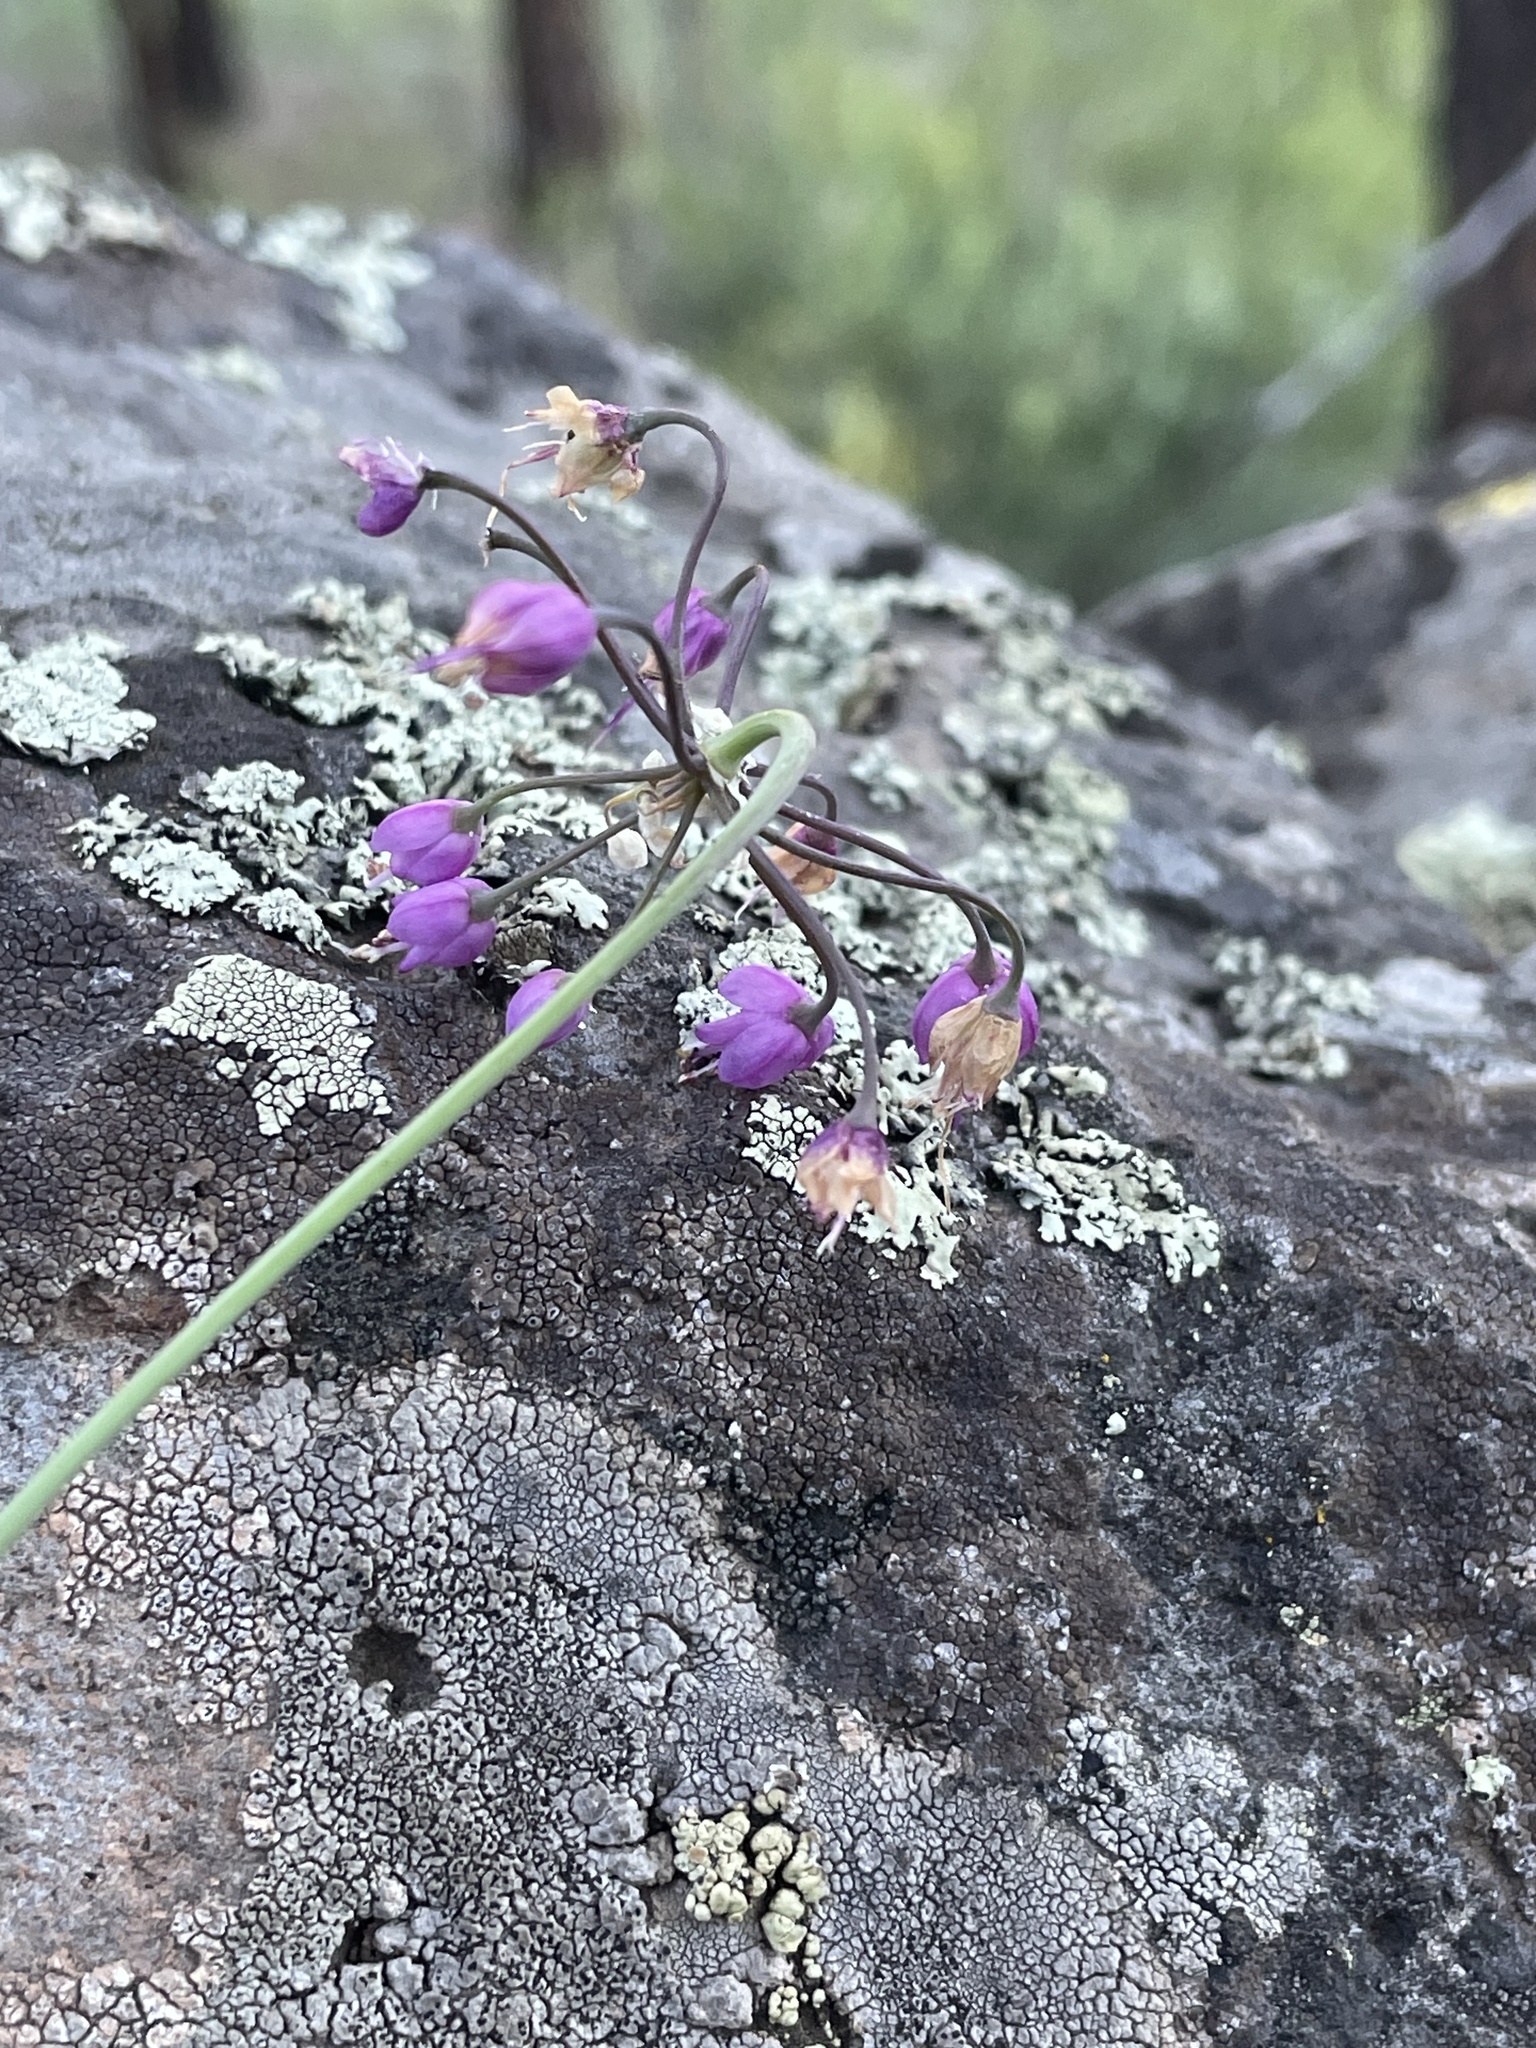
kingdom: Plantae
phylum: Tracheophyta
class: Liliopsida
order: Asparagales
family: Amaryllidaceae
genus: Allium
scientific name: Allium cernuum
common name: Nodding onion
